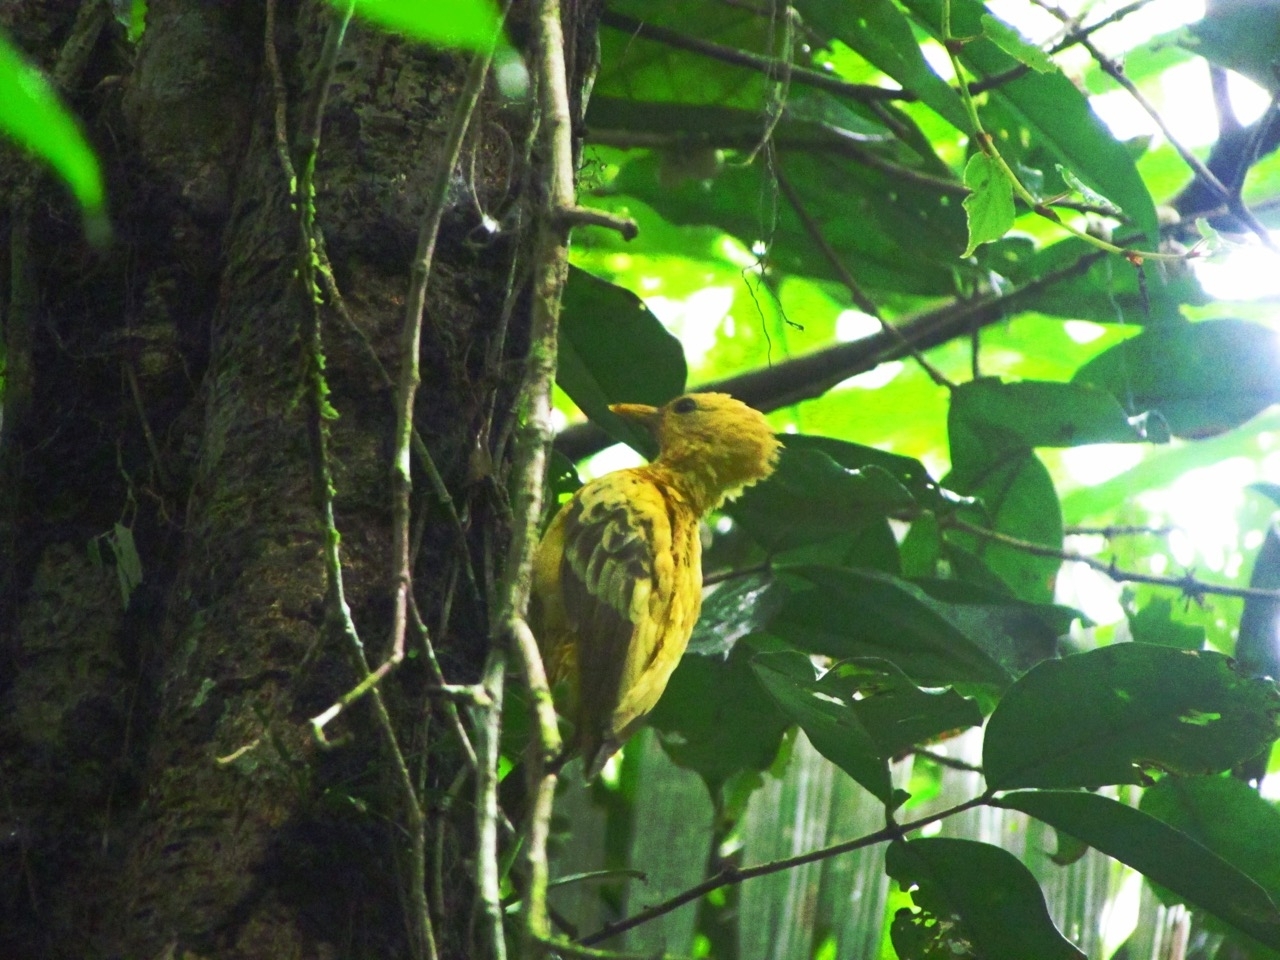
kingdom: Animalia
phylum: Chordata
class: Aves
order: Piciformes
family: Picidae
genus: Celeus
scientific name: Celeus flavus
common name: Cream-colored woodpecker
